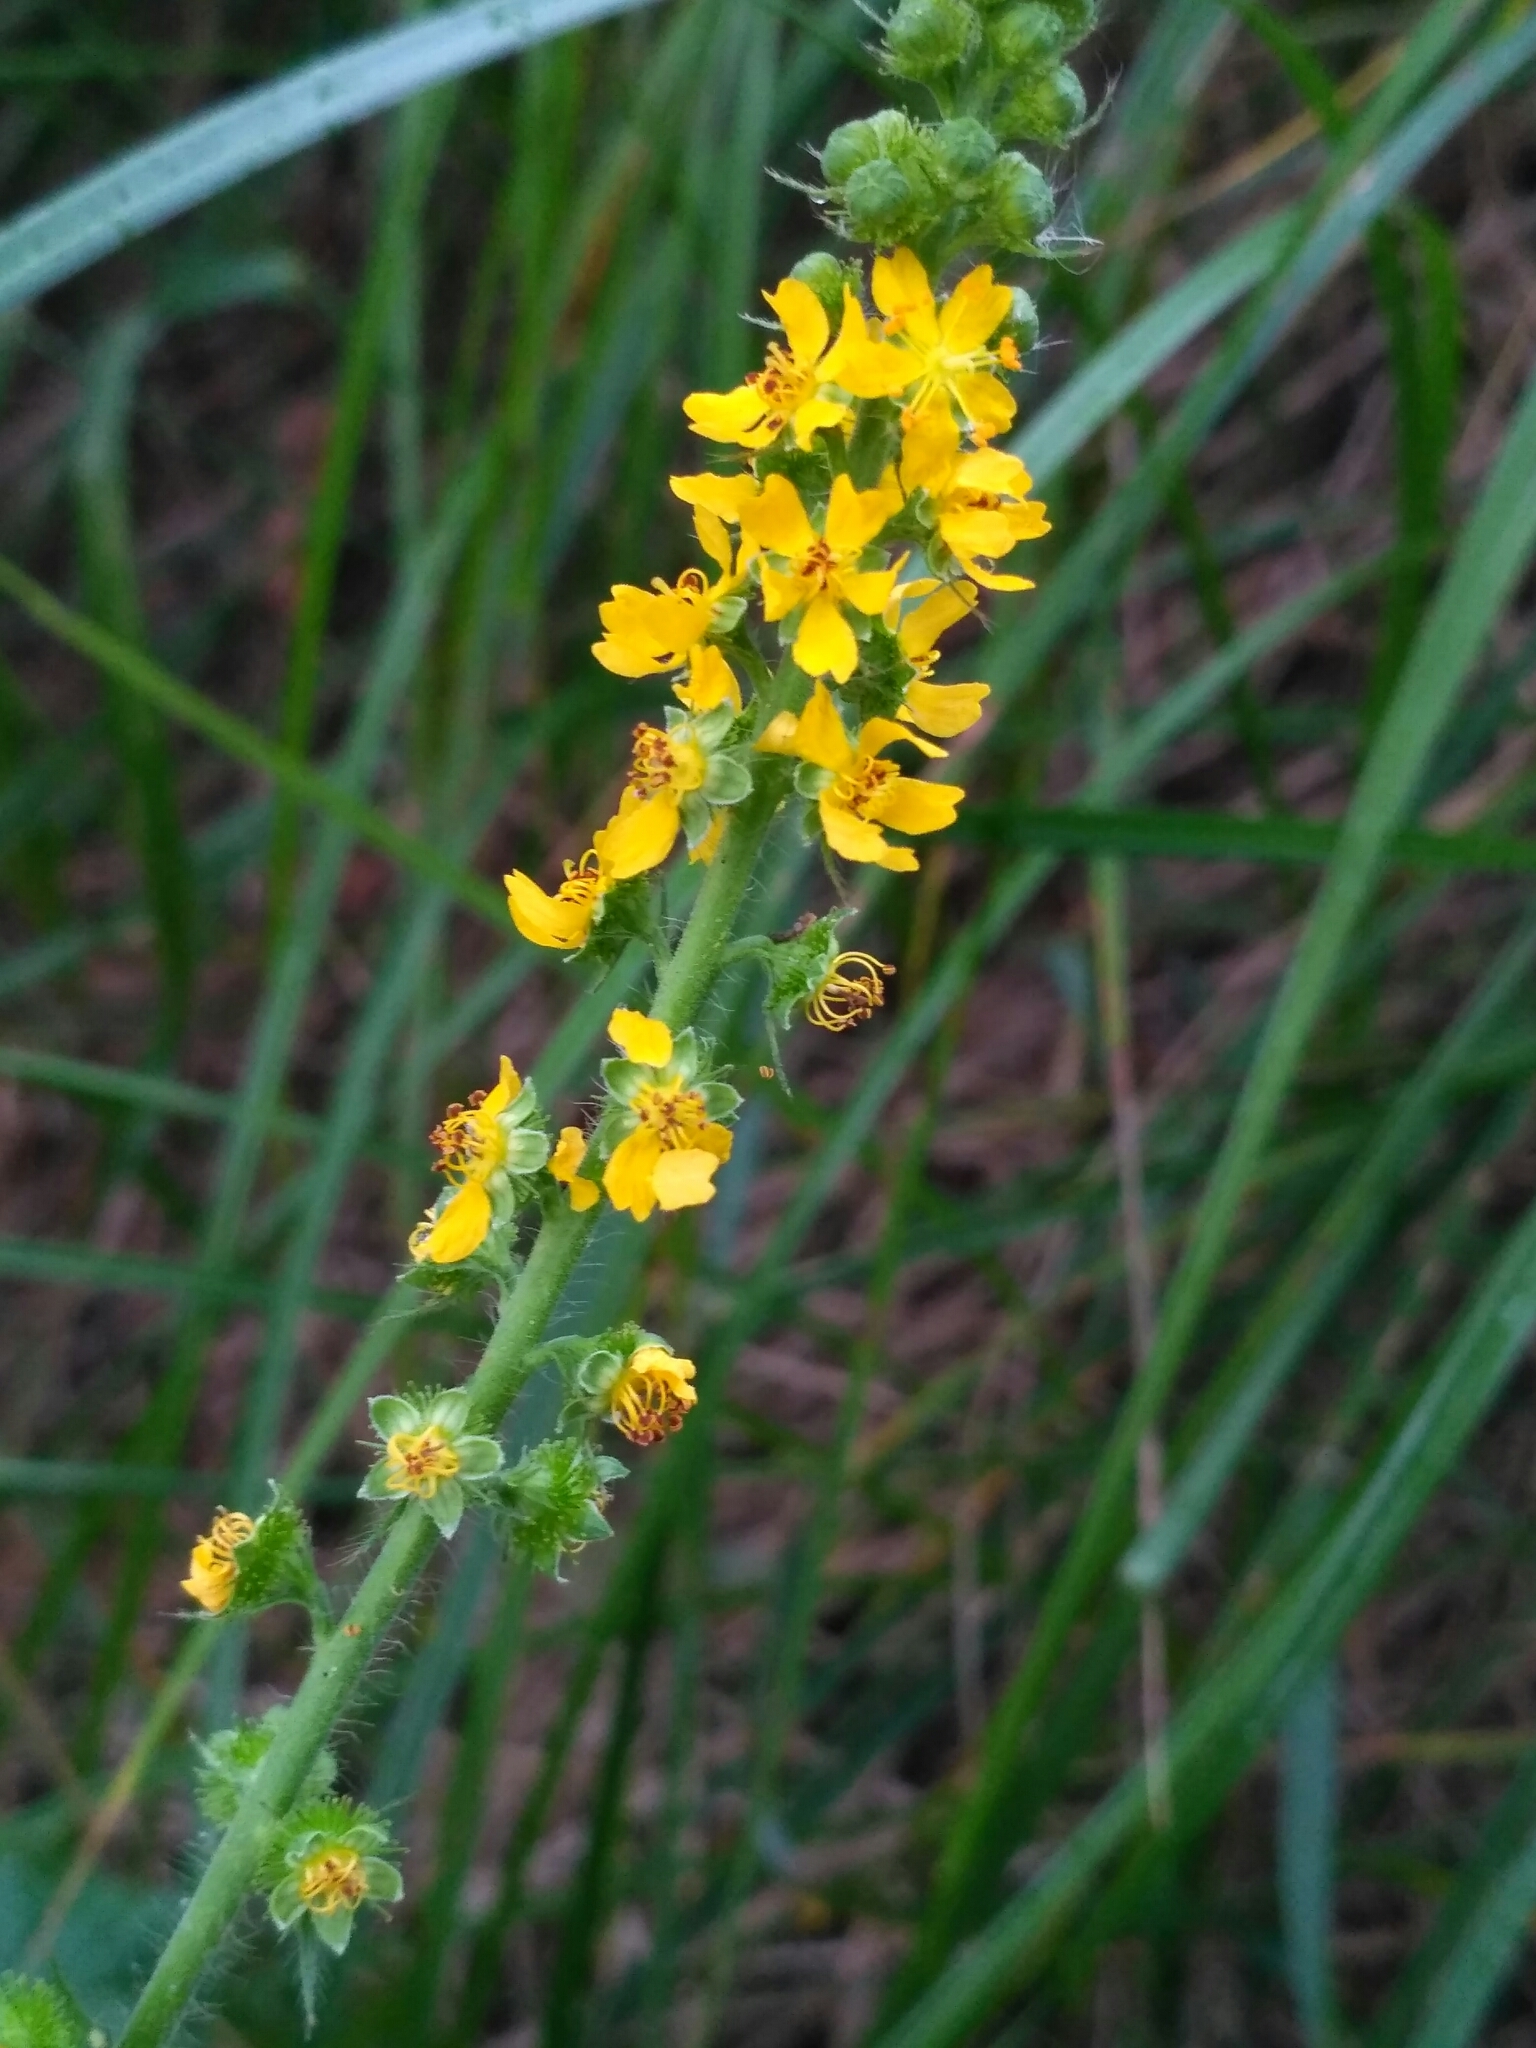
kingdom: Plantae
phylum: Tracheophyta
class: Magnoliopsida
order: Rosales
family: Rosaceae
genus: Agrimonia
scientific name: Agrimonia eupatoria
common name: Agrimony
